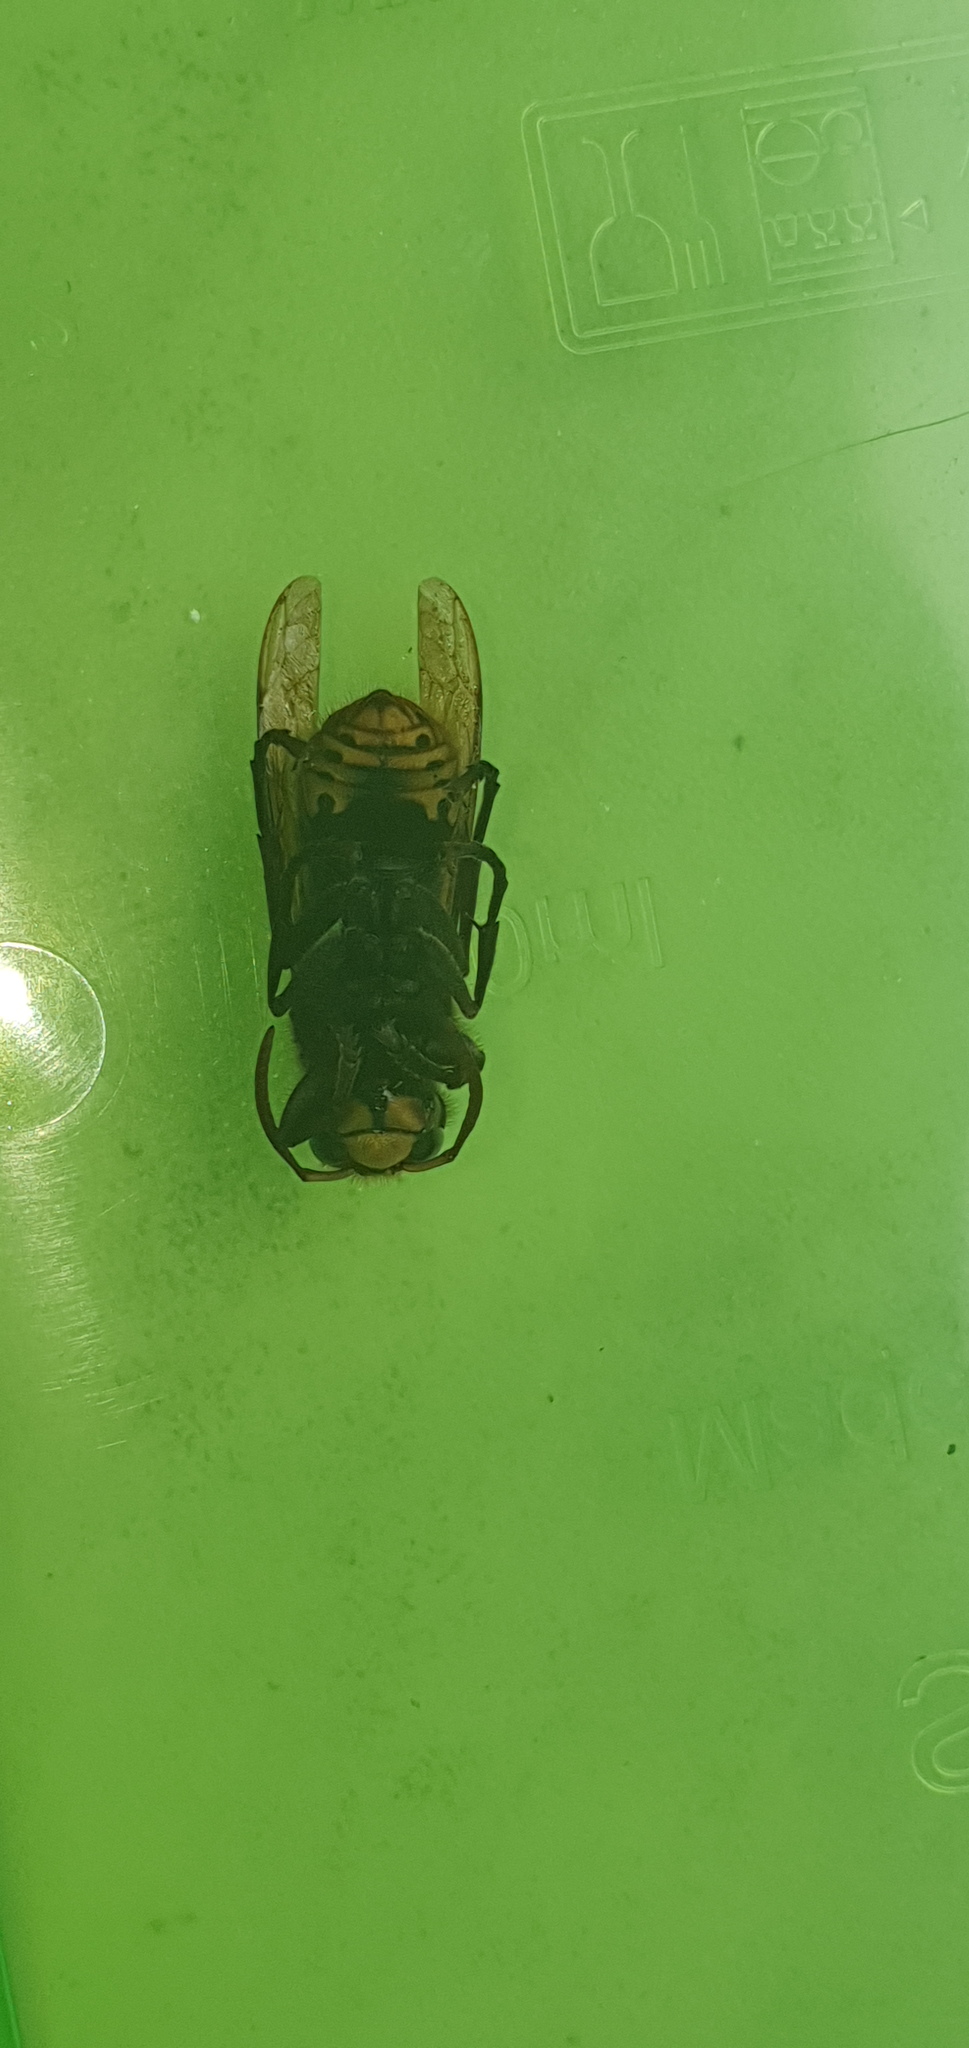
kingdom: Animalia
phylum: Arthropoda
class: Insecta
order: Hymenoptera
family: Vespidae
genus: Vespa
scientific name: Vespa crabro
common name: Hornet
